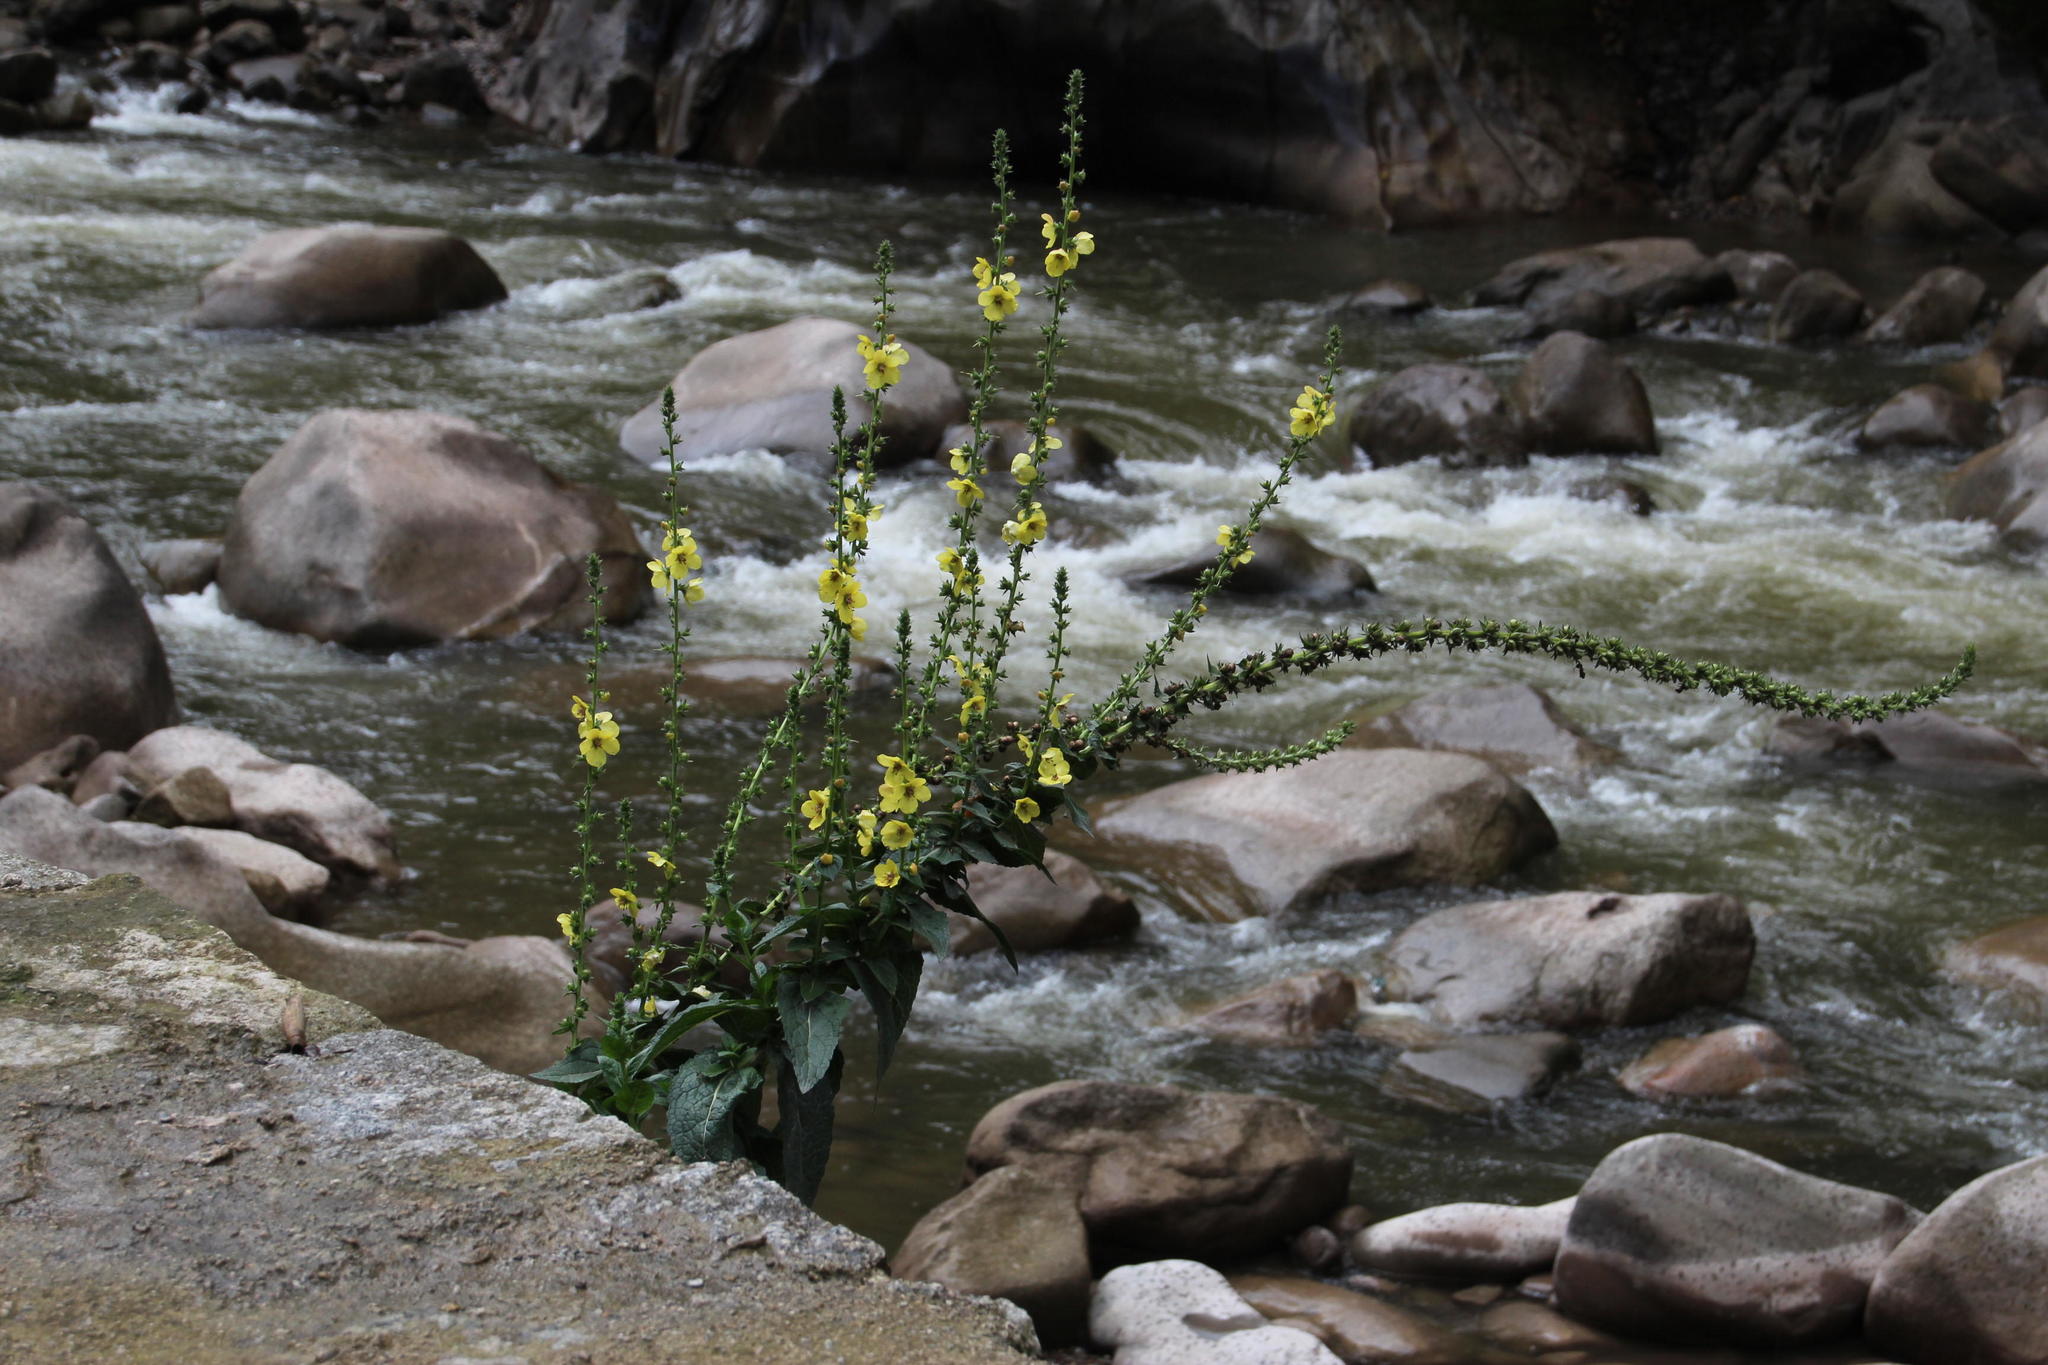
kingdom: Plantae
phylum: Tracheophyta
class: Magnoliopsida
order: Lamiales
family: Scrophulariaceae
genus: Verbascum
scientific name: Verbascum virgatum
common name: Twiggy mullein
